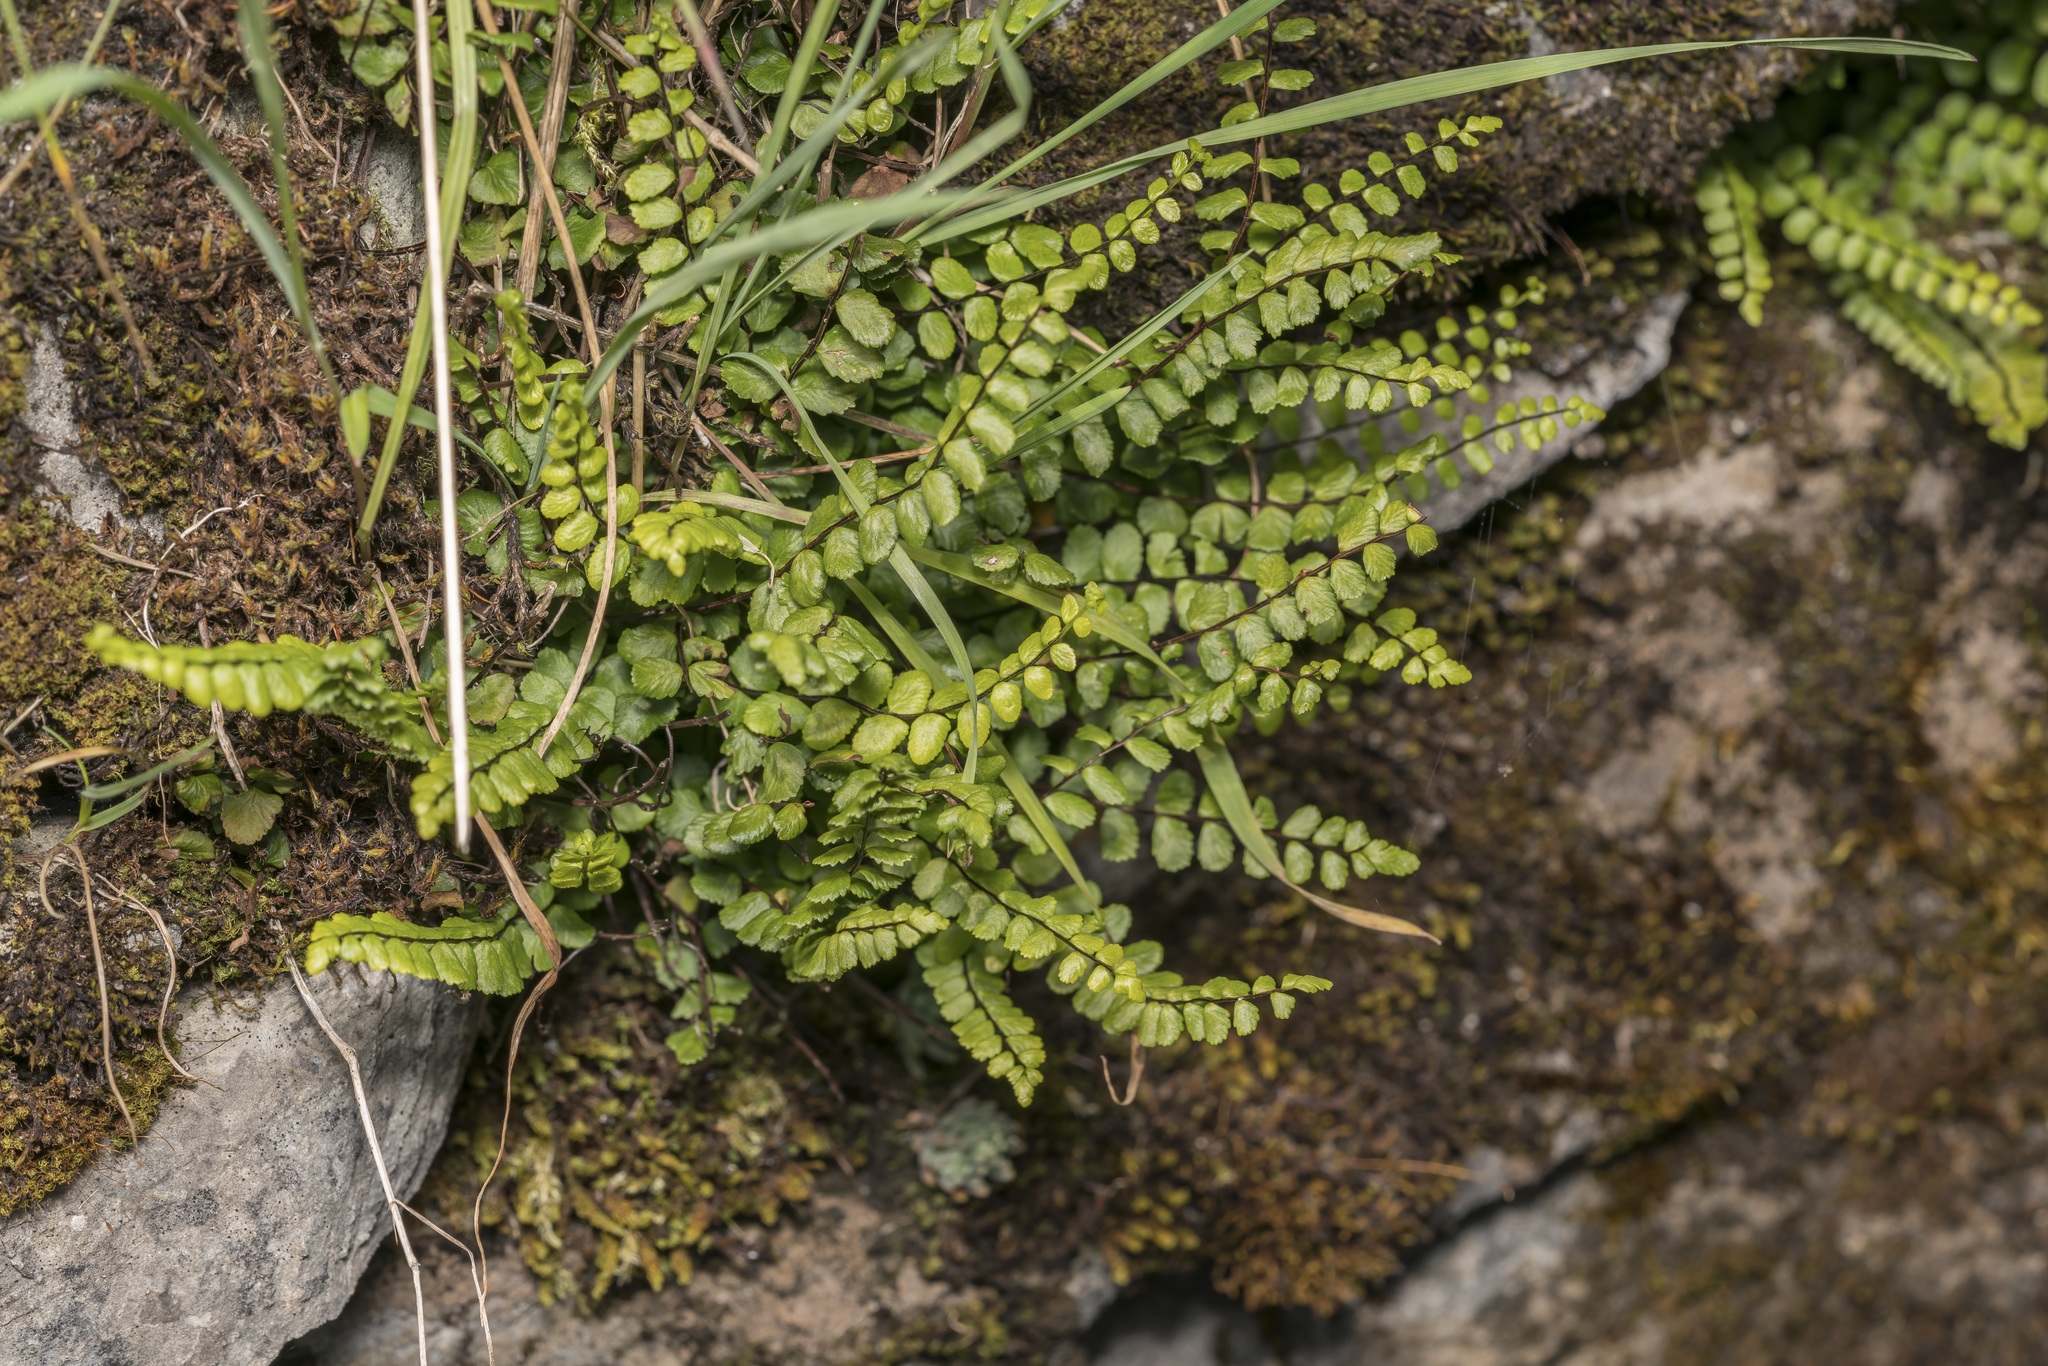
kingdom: Plantae
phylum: Tracheophyta
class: Polypodiopsida
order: Polypodiales
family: Aspleniaceae
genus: Asplenium
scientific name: Asplenium trichomanes
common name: Maidenhair spleenwort
